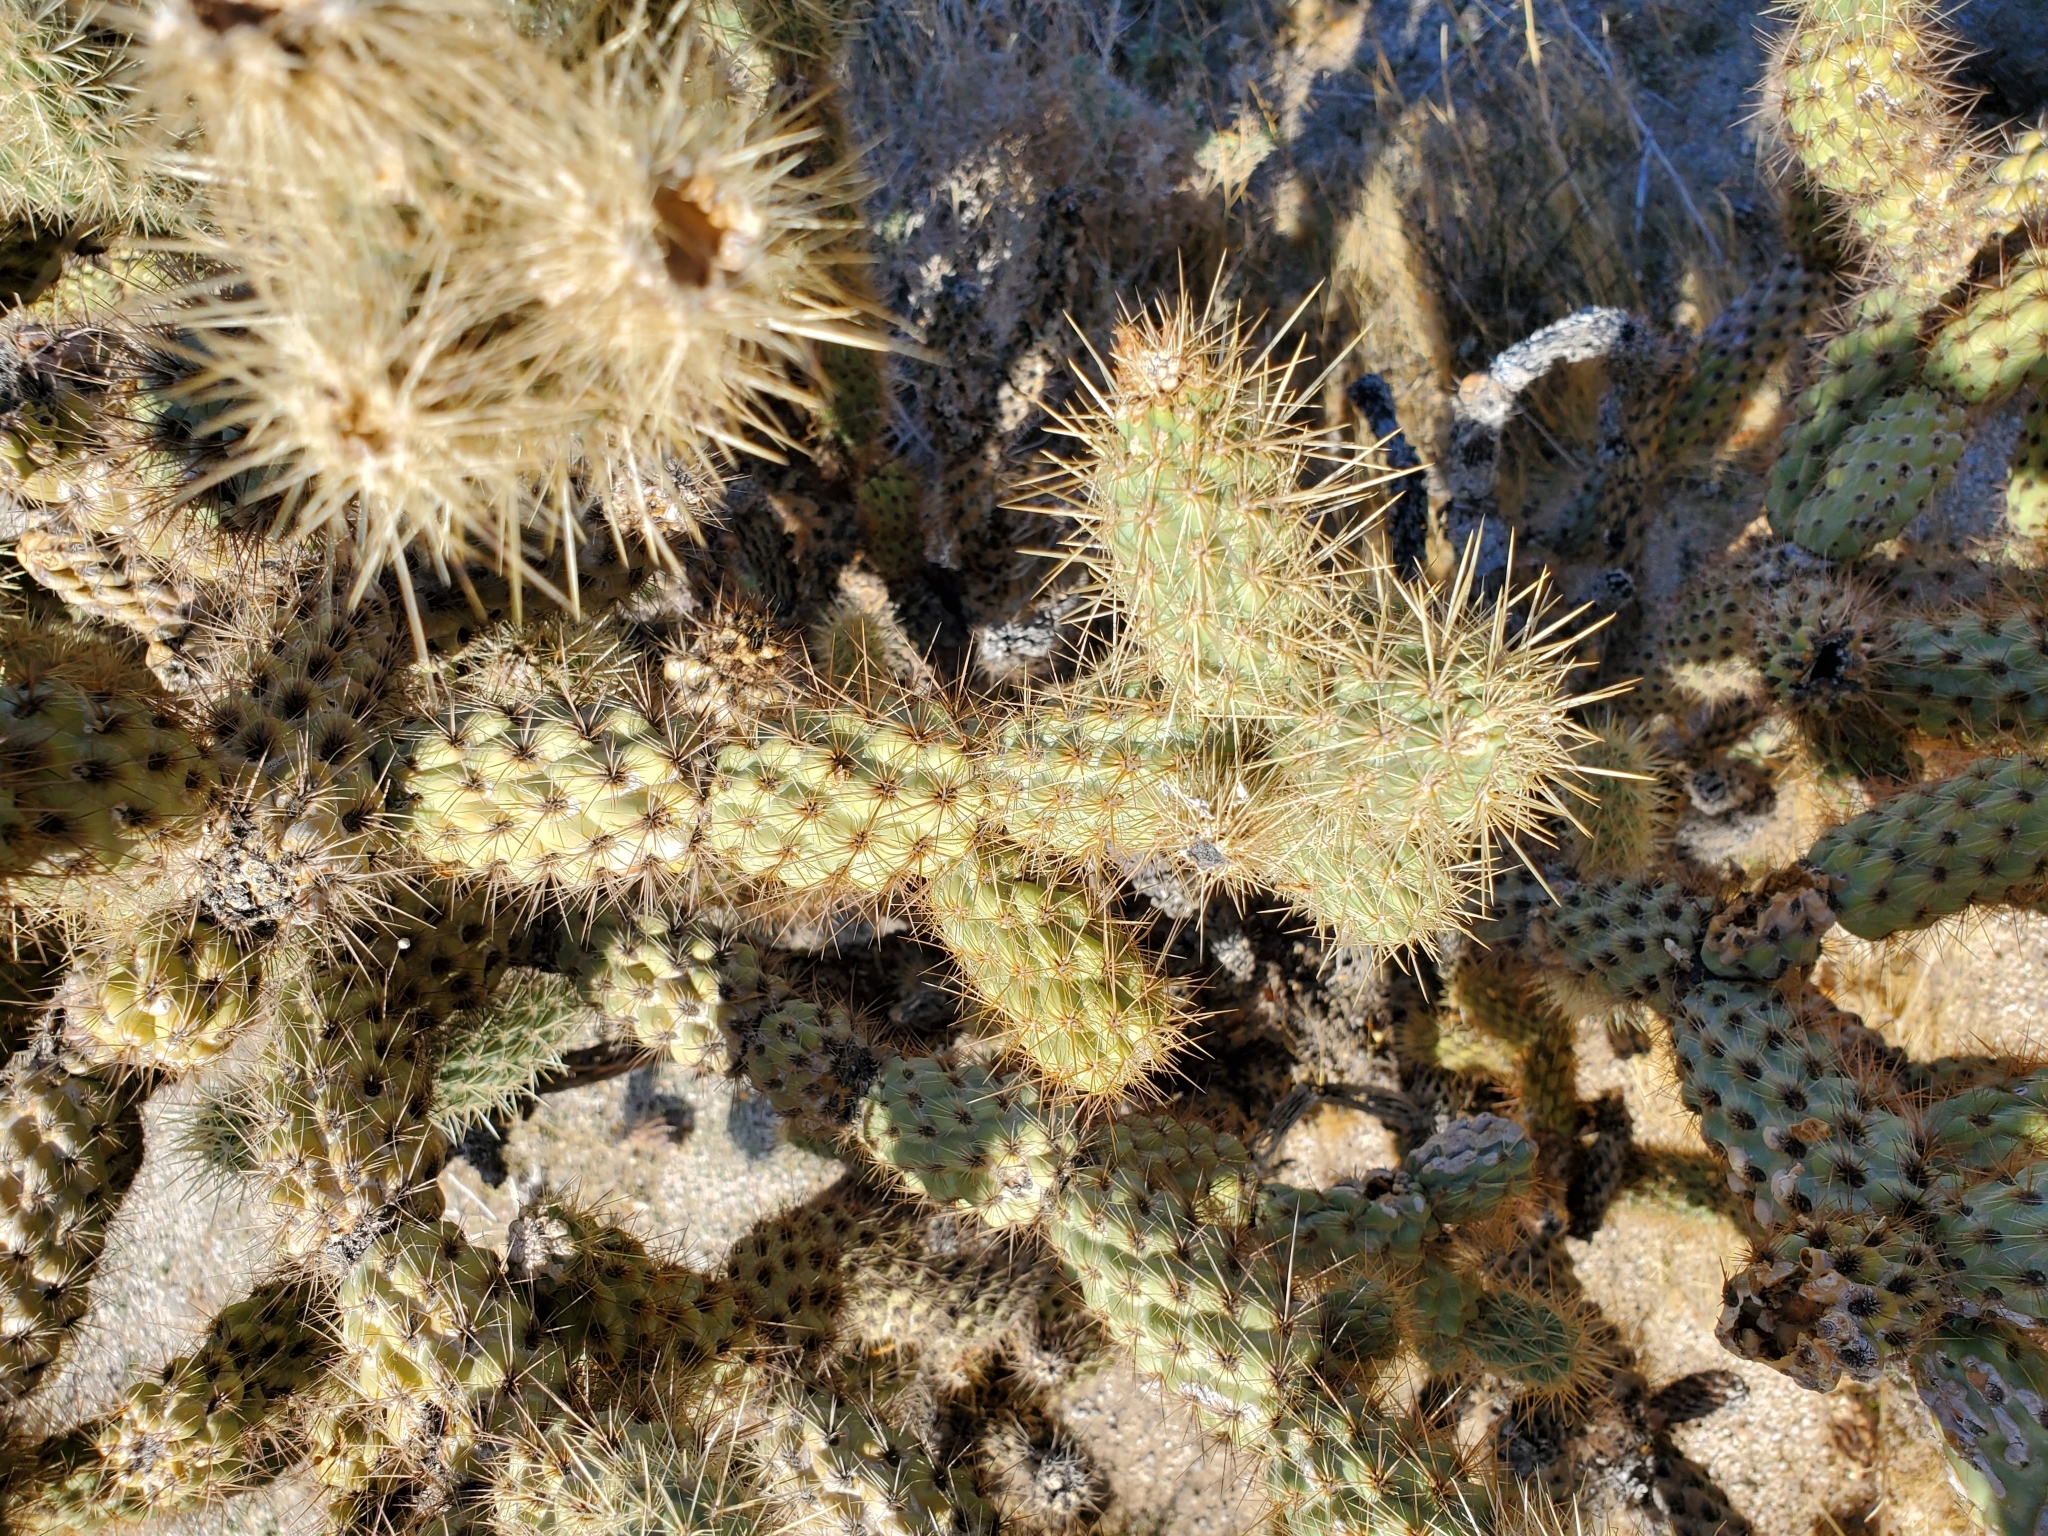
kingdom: Plantae
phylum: Tracheophyta
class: Magnoliopsida
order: Caryophyllales
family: Cactaceae
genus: Cylindropuntia
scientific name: Cylindropuntia wolfii
